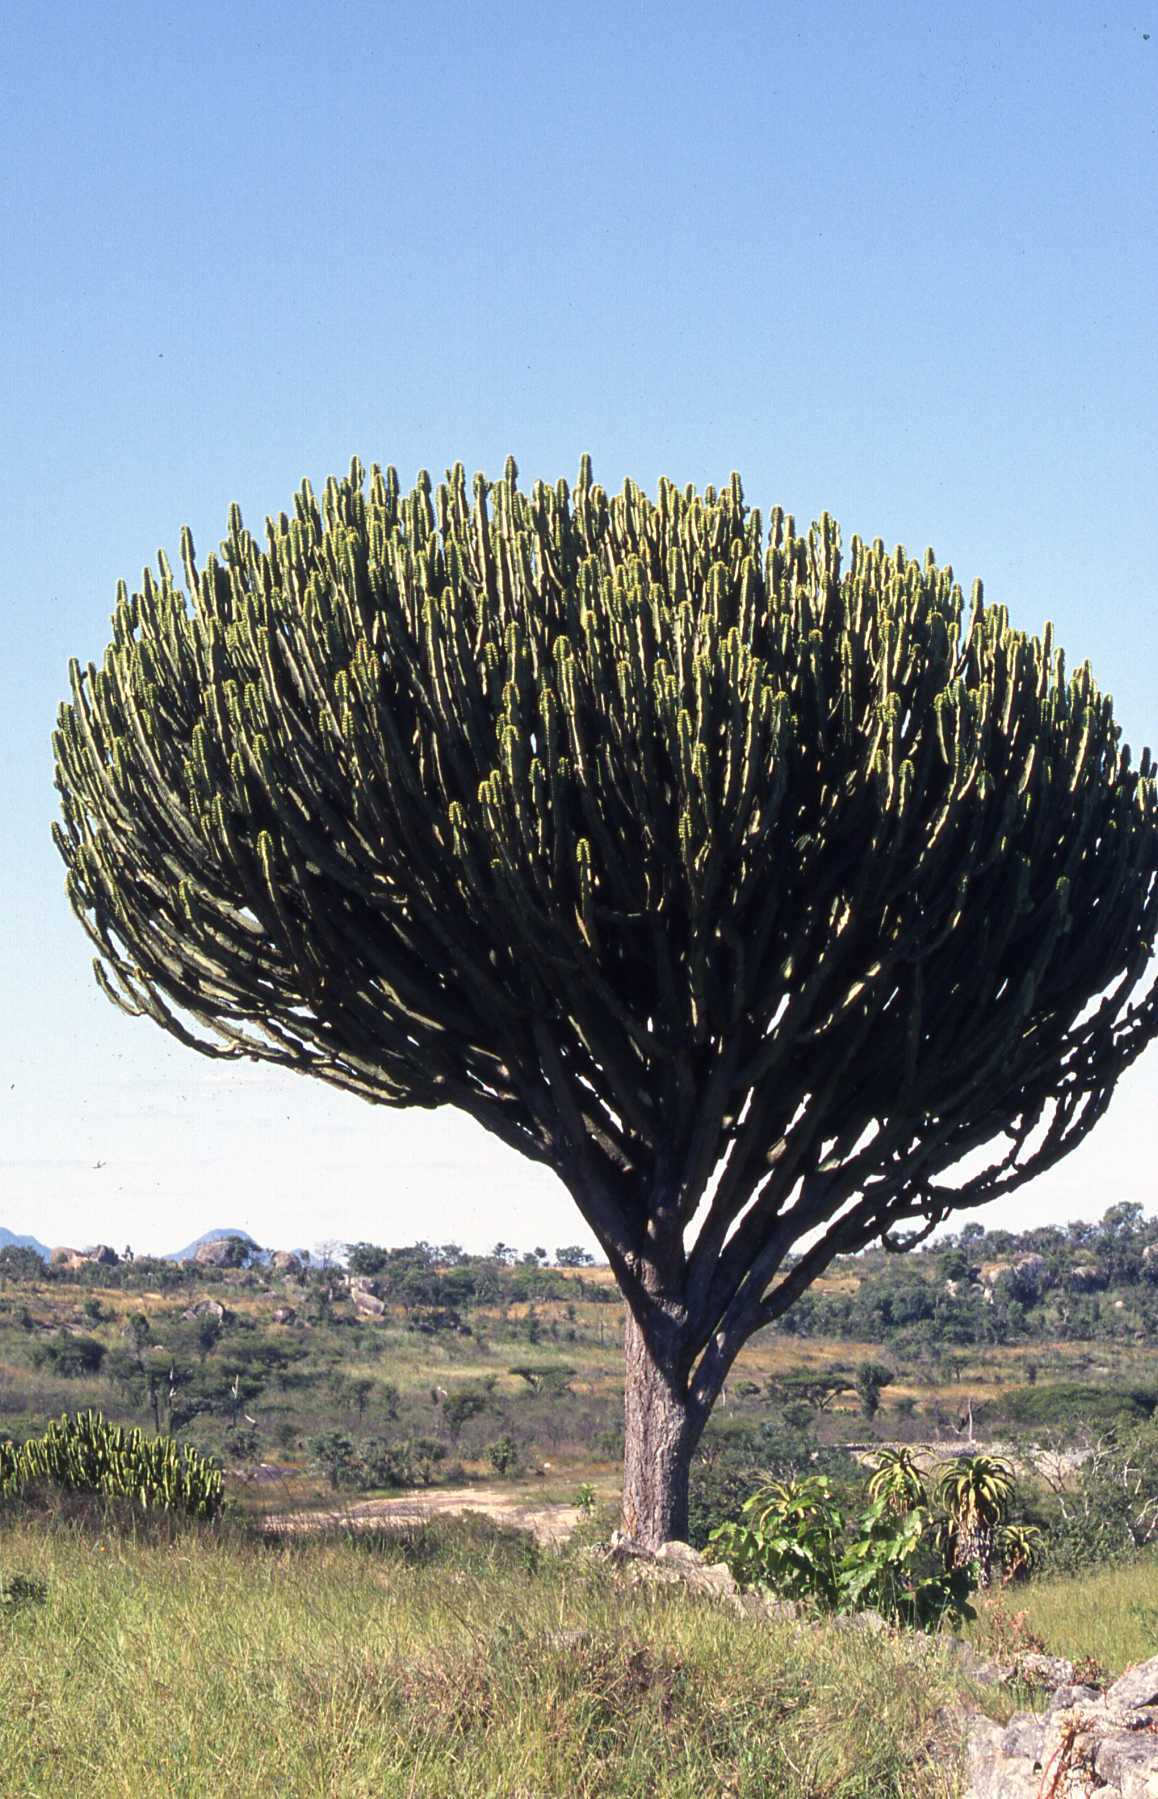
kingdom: Plantae
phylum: Tracheophyta
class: Magnoliopsida
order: Malpighiales
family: Euphorbiaceae
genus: Euphorbia
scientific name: Euphorbia ingens
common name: Cactus spurge
